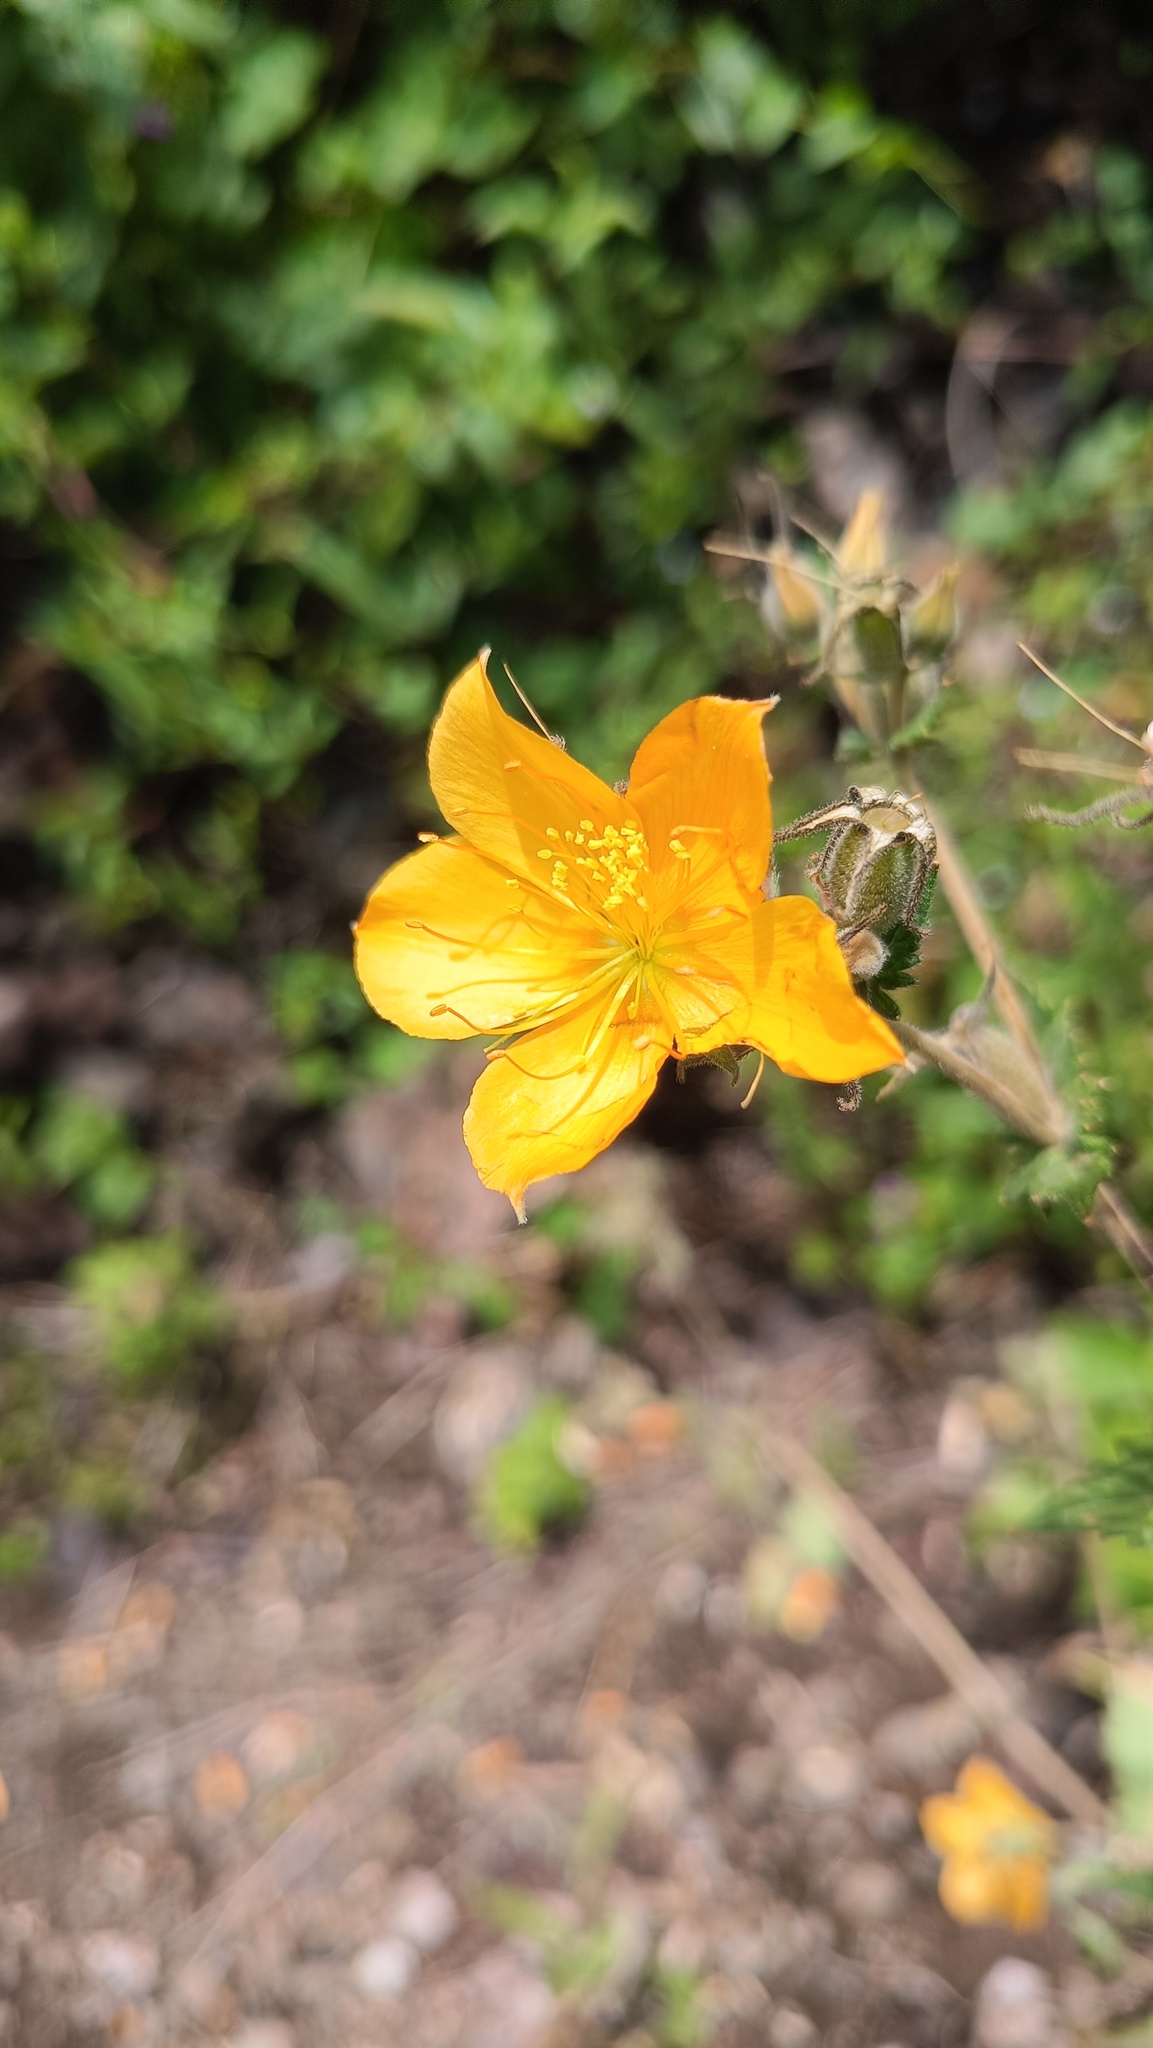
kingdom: Plantae
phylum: Tracheophyta
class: Magnoliopsida
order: Cornales
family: Loasaceae
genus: Mentzelia
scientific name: Mentzelia hispida
